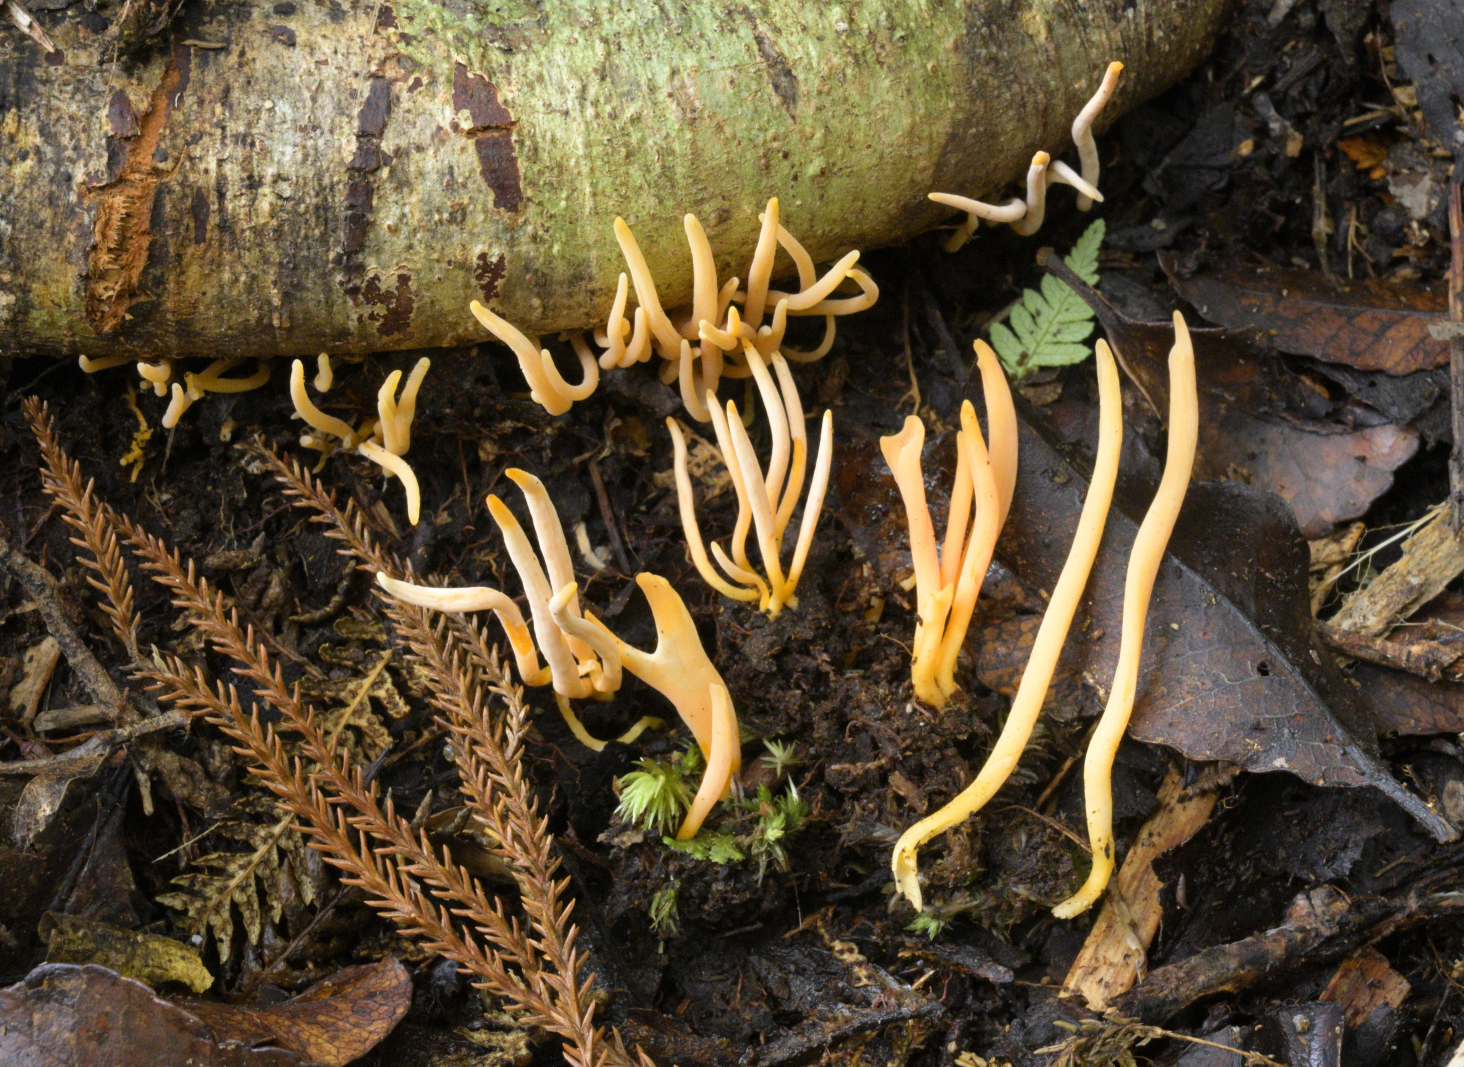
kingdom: Fungi
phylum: Basidiomycota
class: Agaricomycetes
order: Agaricales
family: Clavariaceae
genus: Clavulinopsis
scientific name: Clavulinopsis
